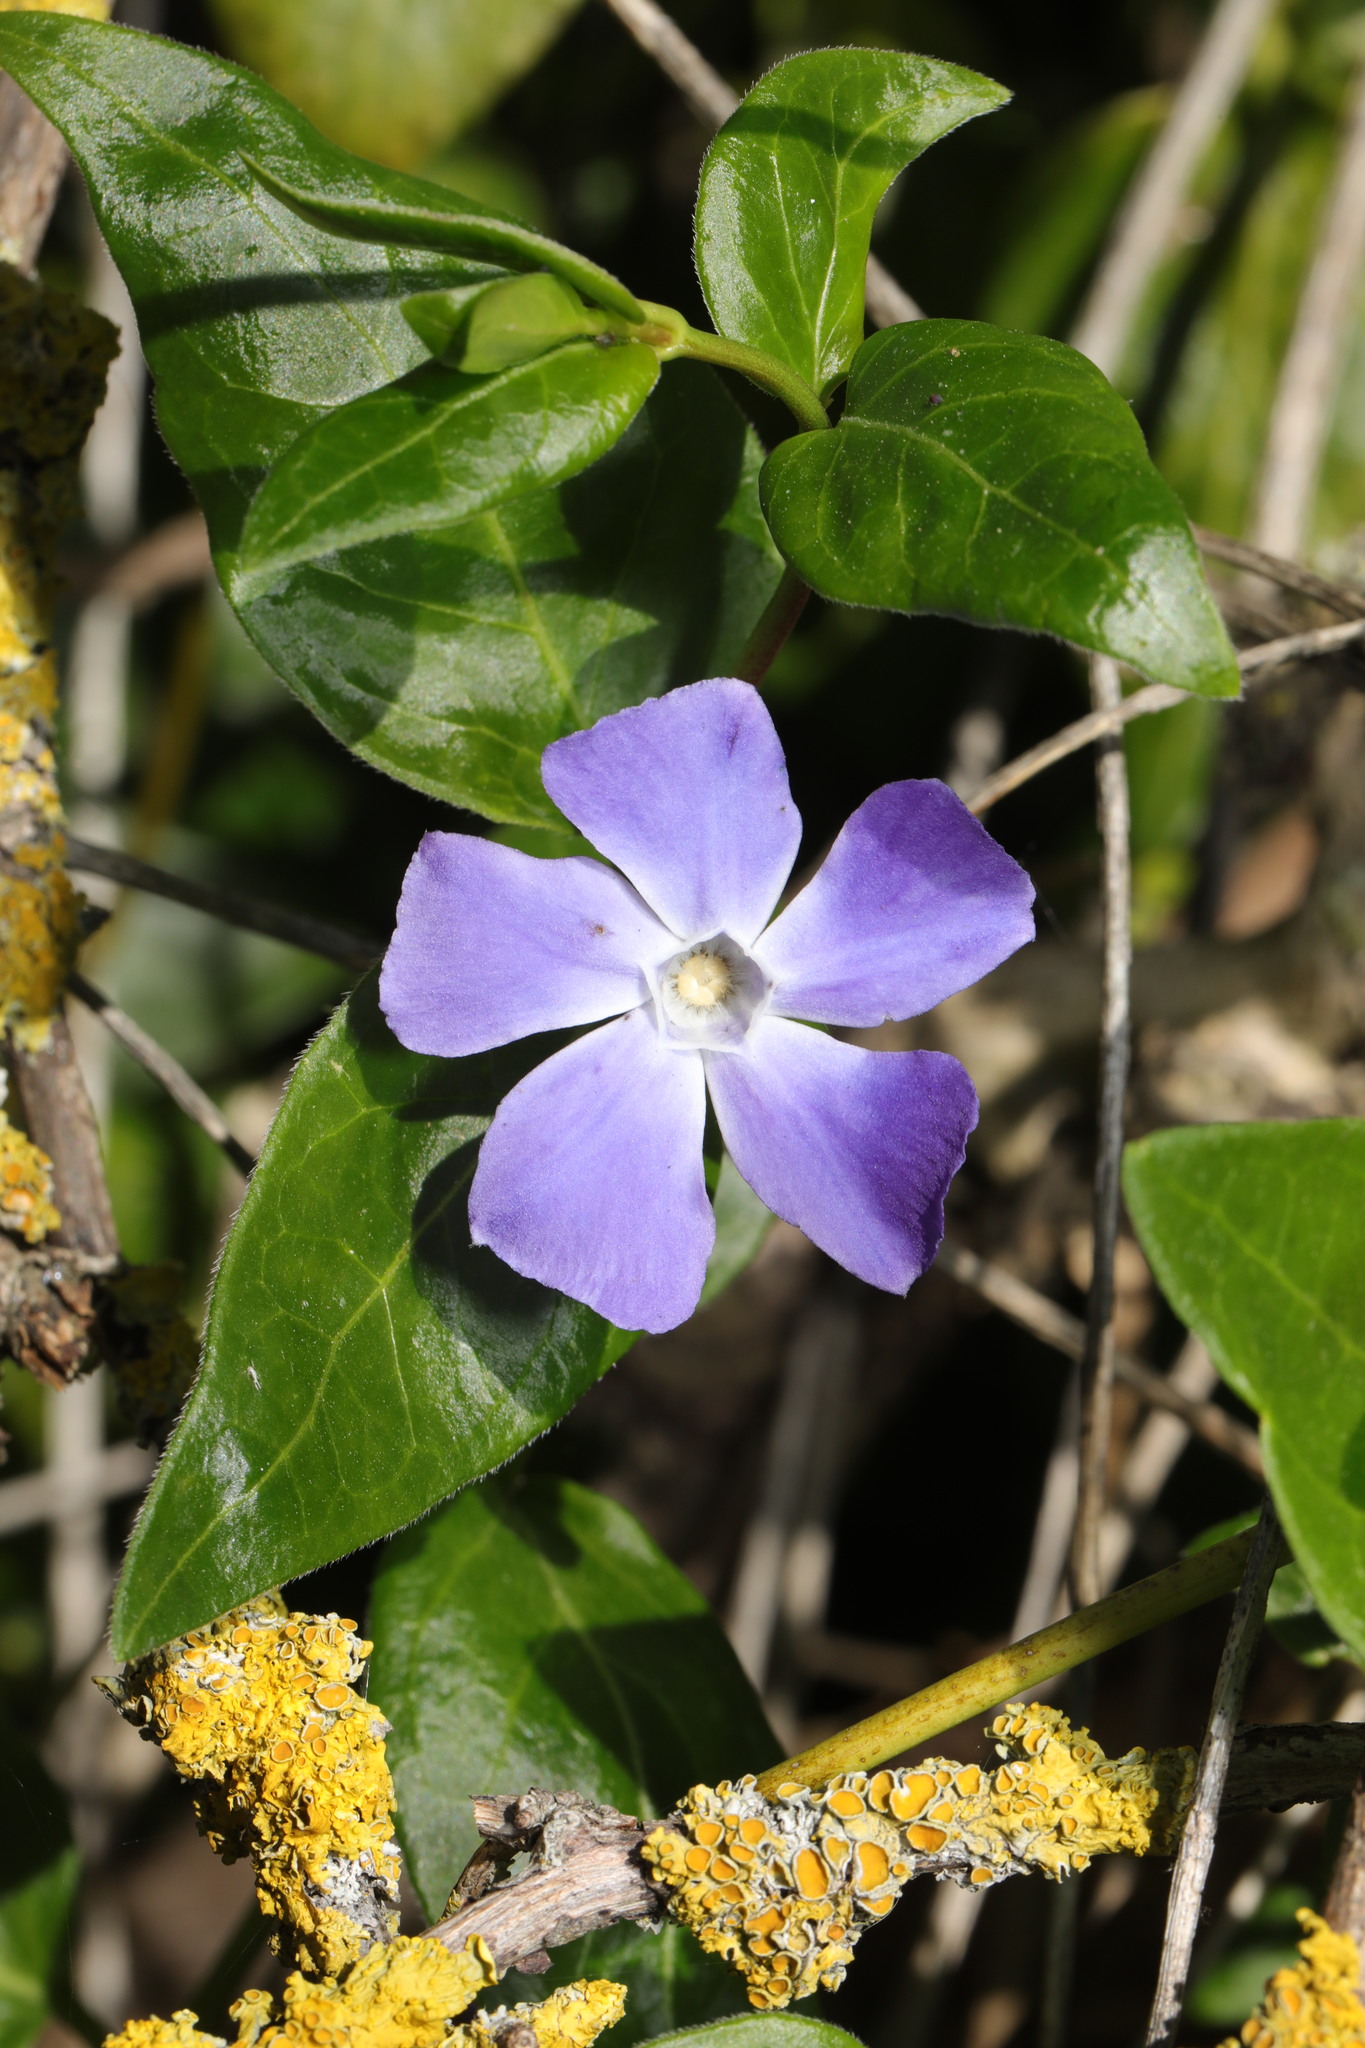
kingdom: Plantae
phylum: Tracheophyta
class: Magnoliopsida
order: Gentianales
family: Apocynaceae
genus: Vinca
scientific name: Vinca major
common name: Greater periwinkle
